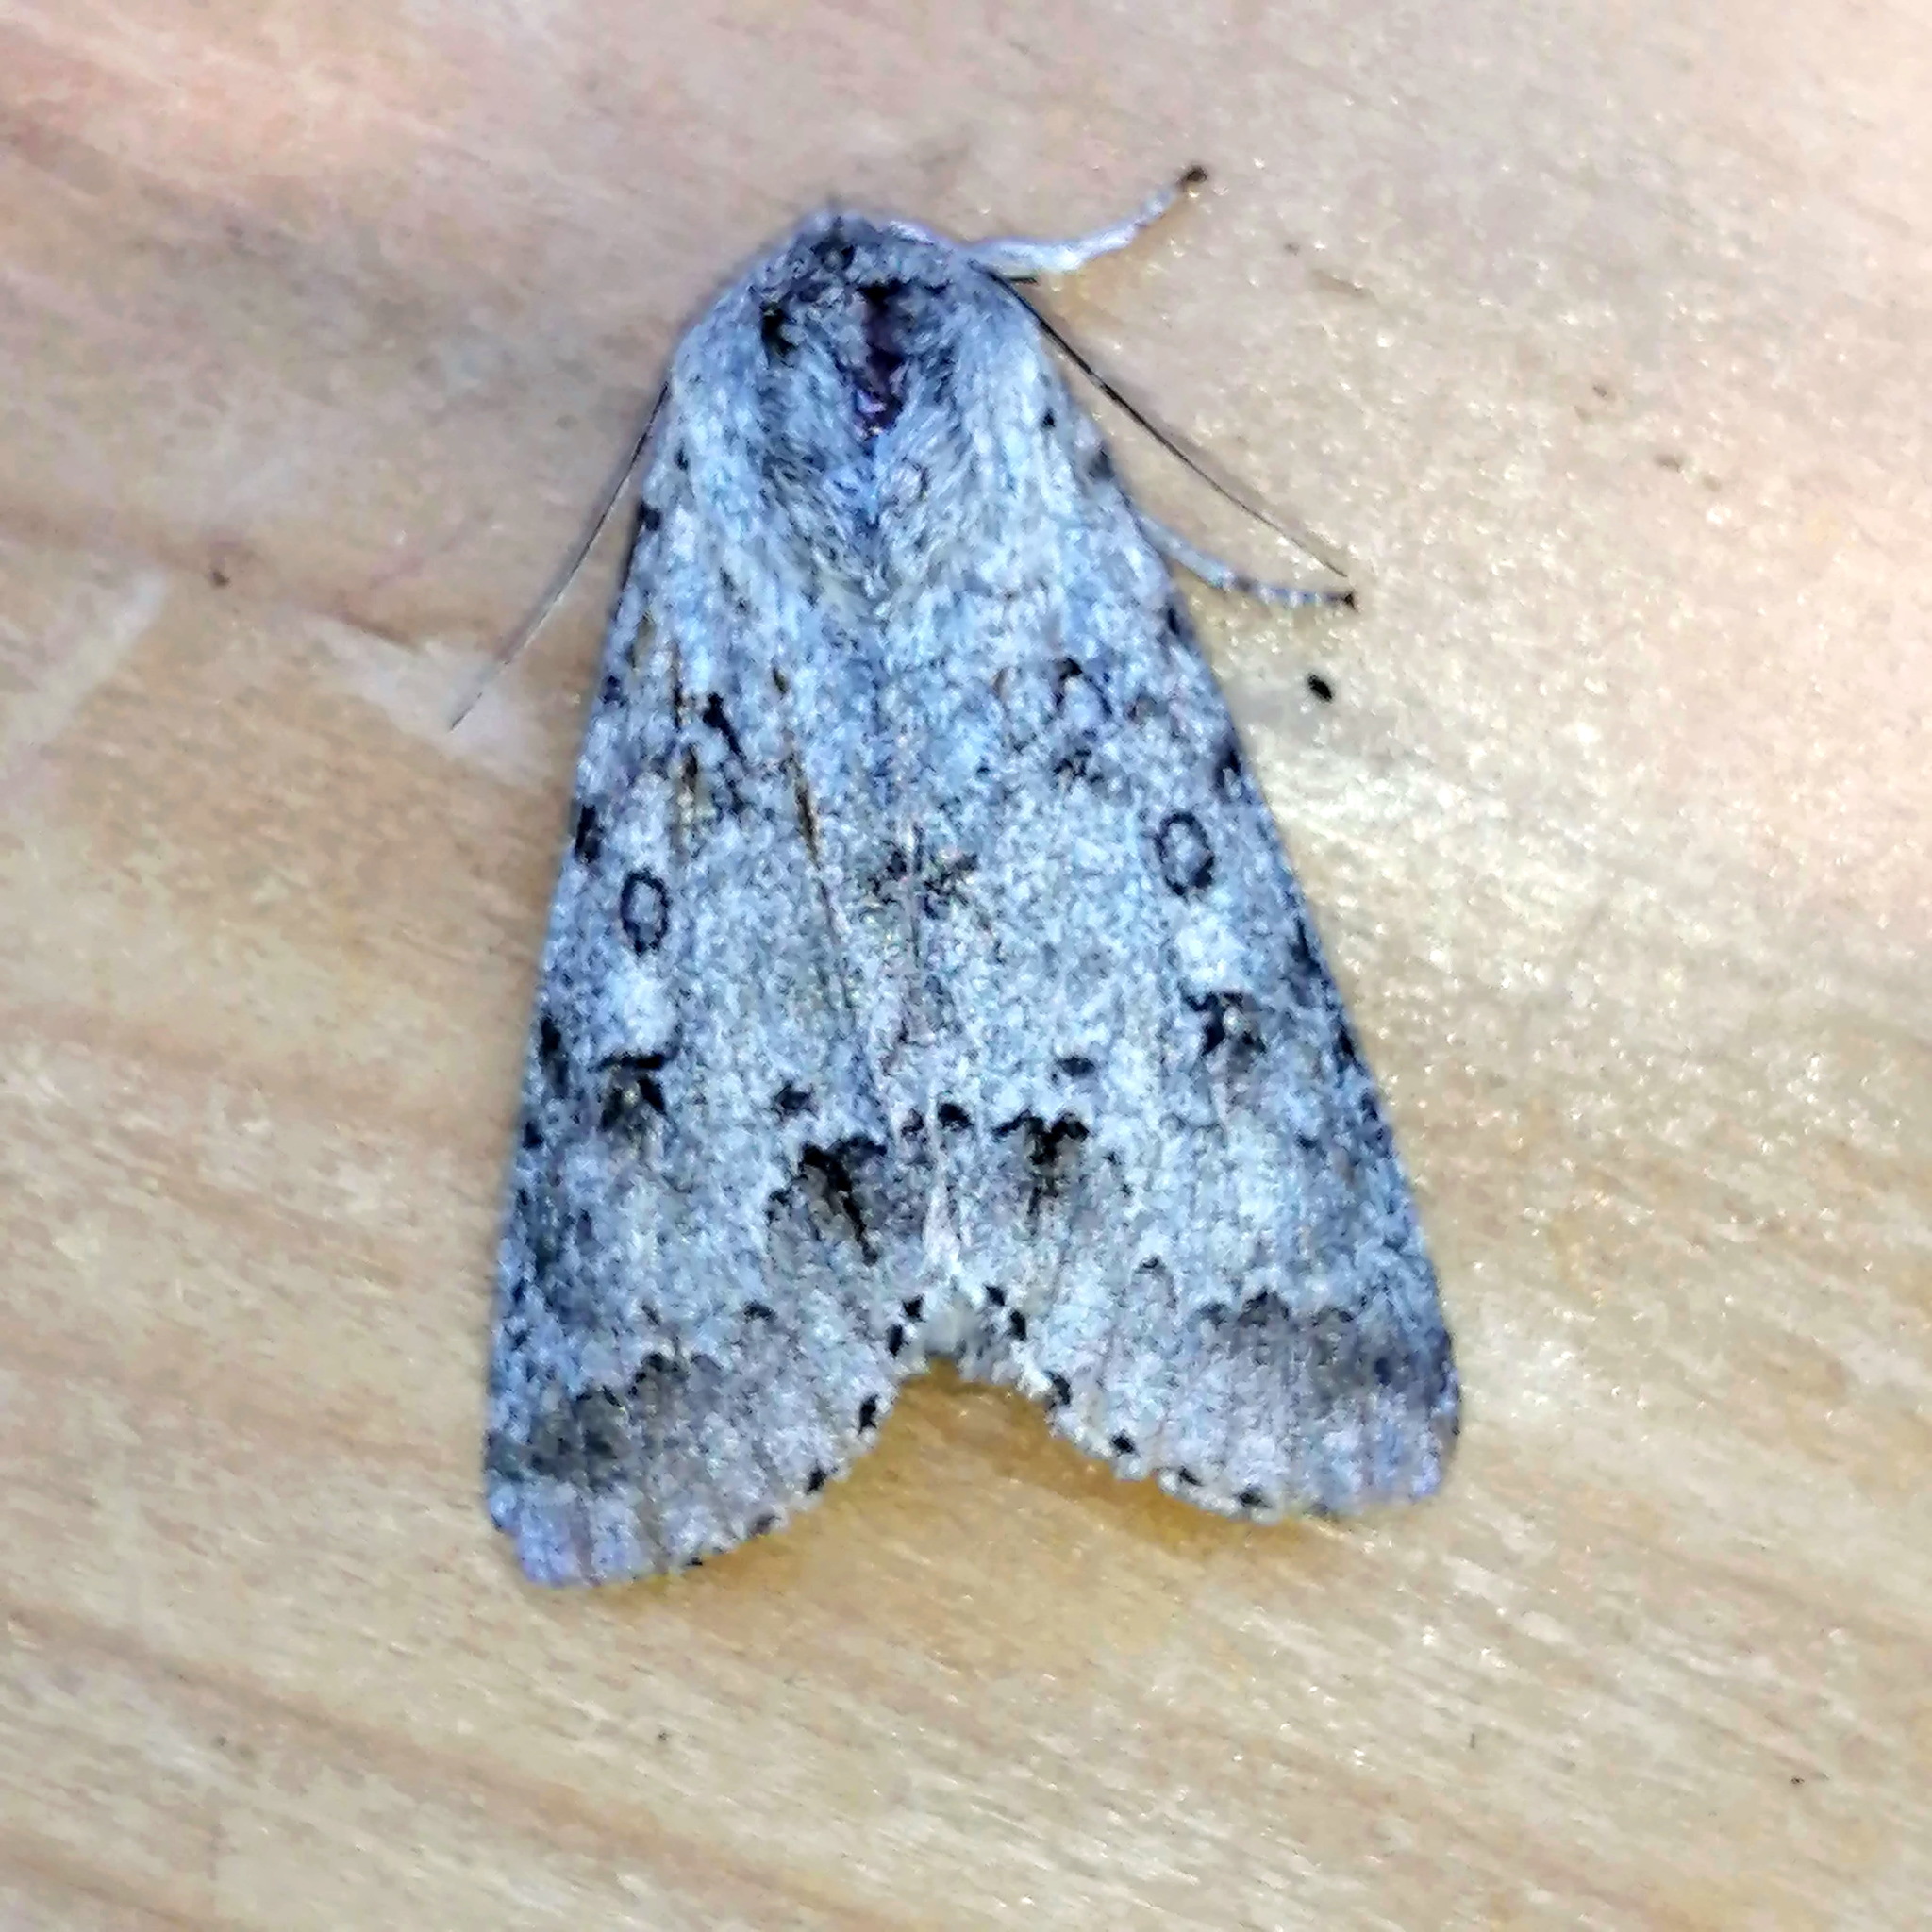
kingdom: Animalia
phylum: Arthropoda
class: Insecta
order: Lepidoptera
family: Noctuidae
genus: Acronicta
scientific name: Acronicta insita
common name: Large gray dagger
